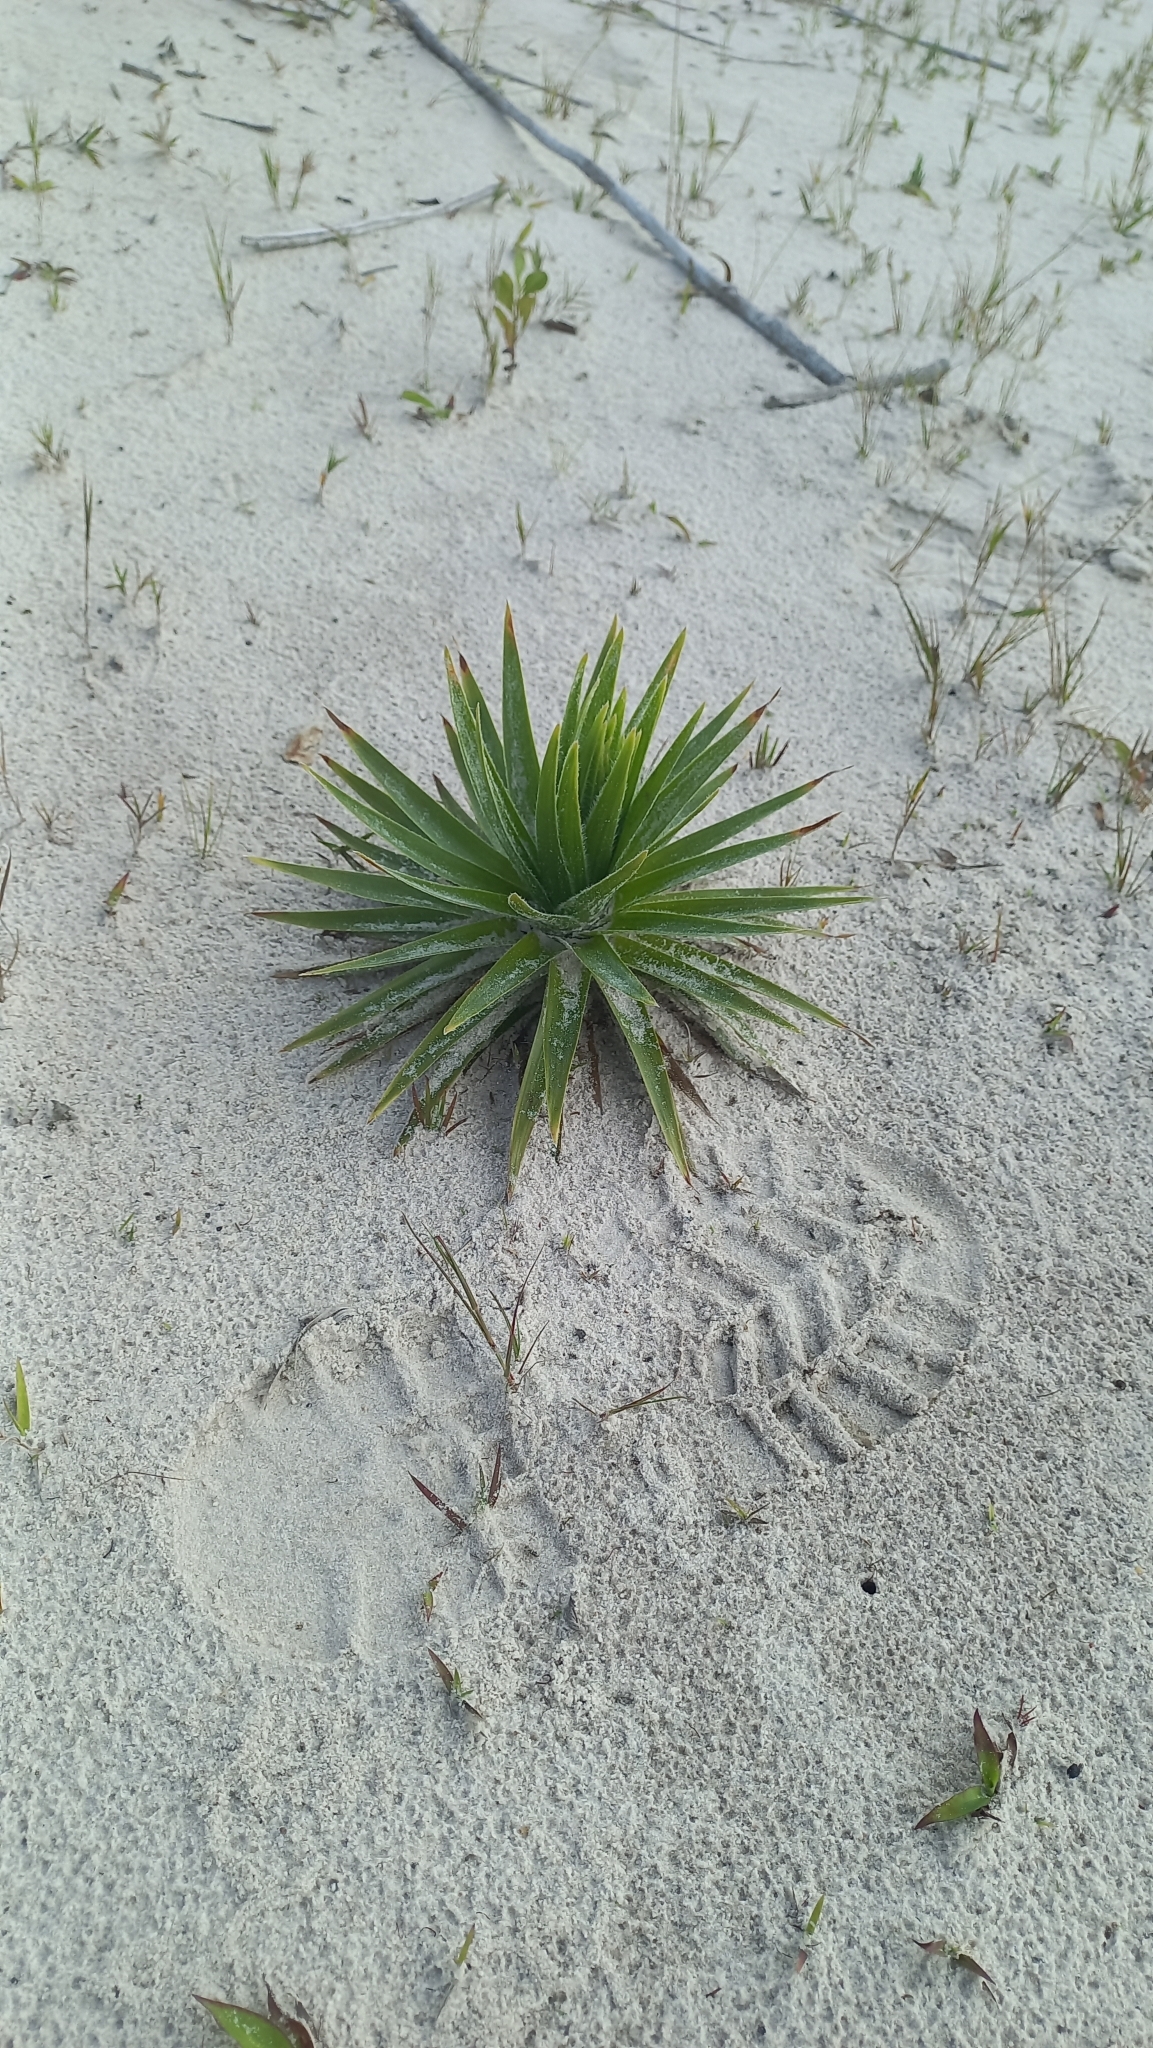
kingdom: Plantae
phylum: Tracheophyta
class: Liliopsida
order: Poales
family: Eriocaulaceae
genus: Paepalanthus
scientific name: Paepalanthus polyanthus
